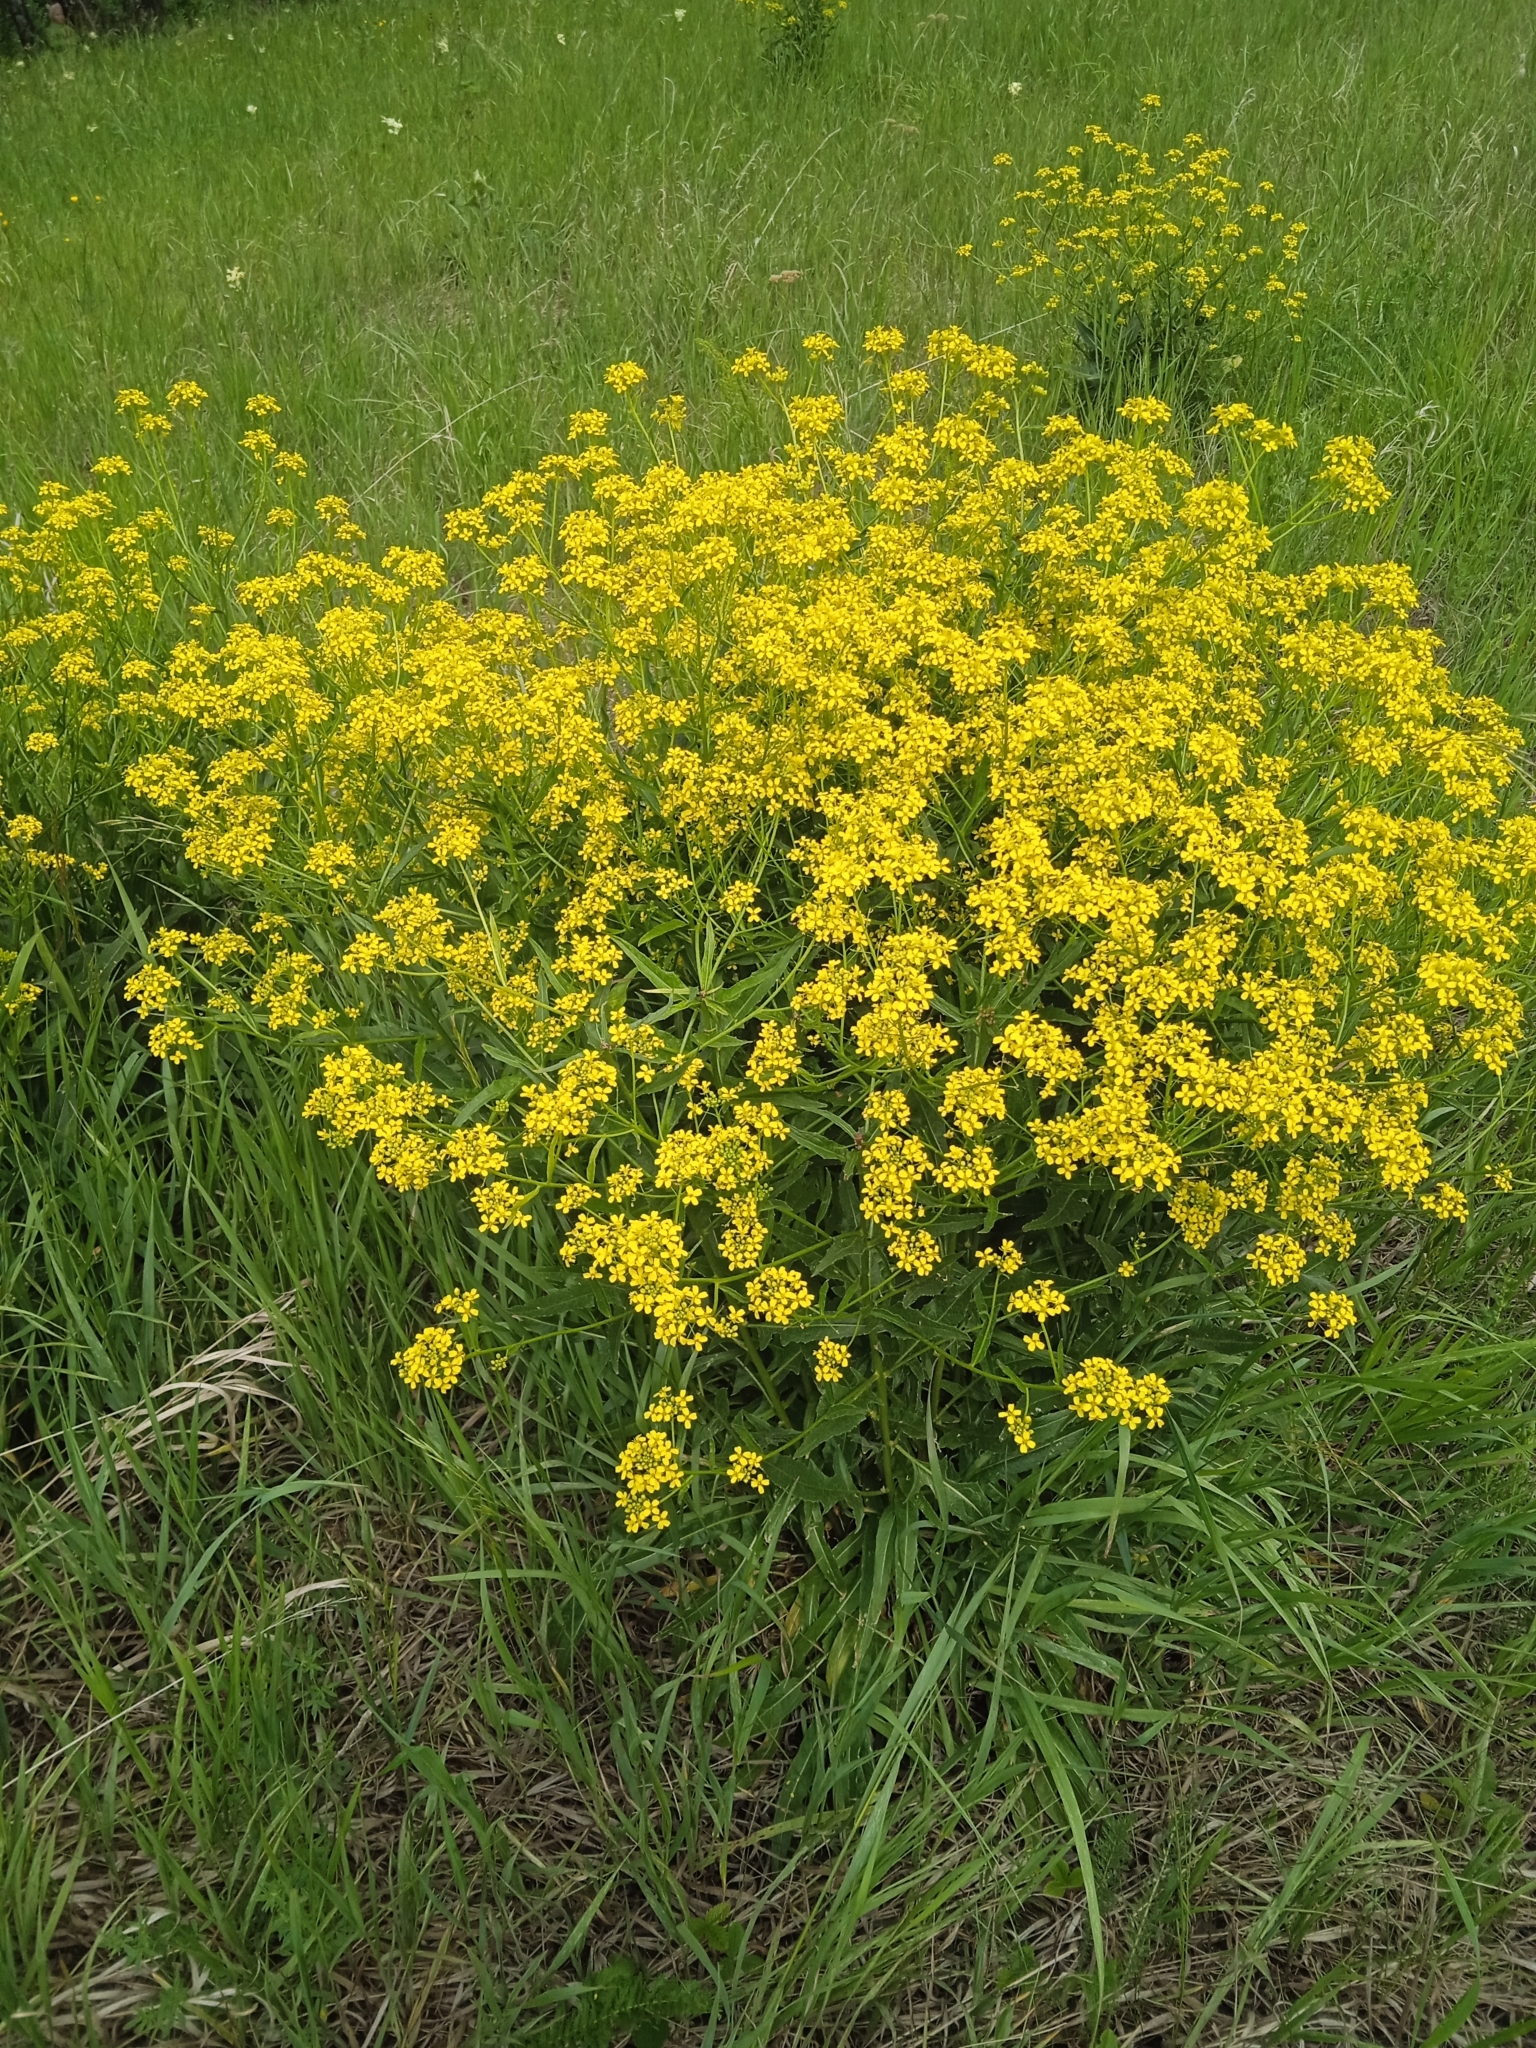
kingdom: Plantae
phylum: Tracheophyta
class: Magnoliopsida
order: Brassicales
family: Brassicaceae
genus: Bunias
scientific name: Bunias orientalis
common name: Warty-cabbage
